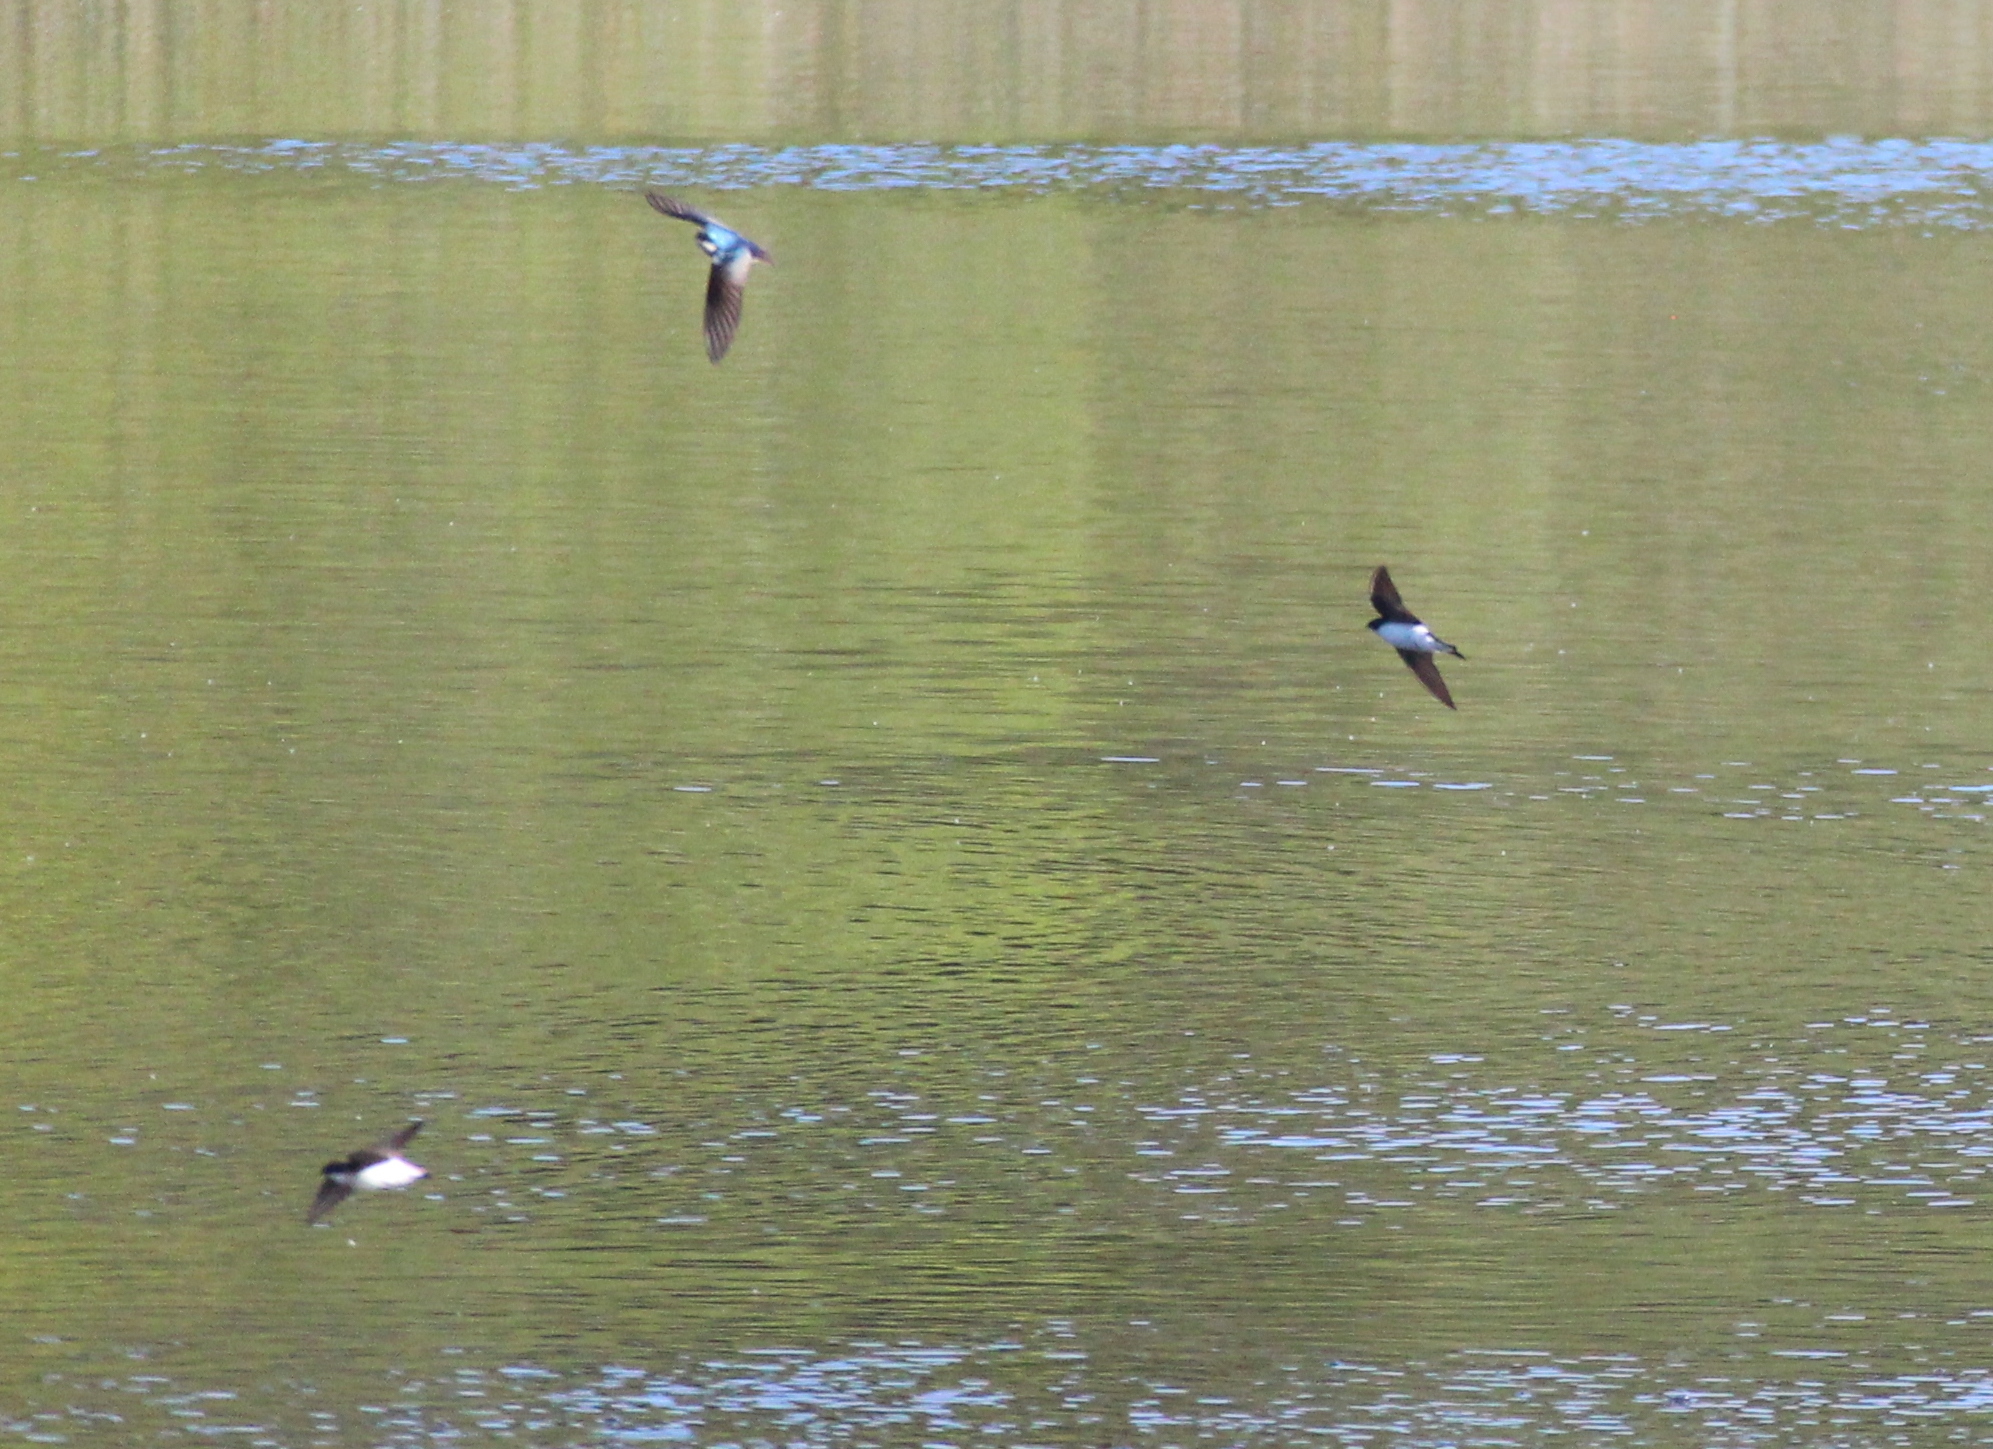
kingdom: Animalia
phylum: Chordata
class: Aves
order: Passeriformes
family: Hirundinidae
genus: Tachycineta
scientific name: Tachycineta bicolor
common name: Tree swallow
